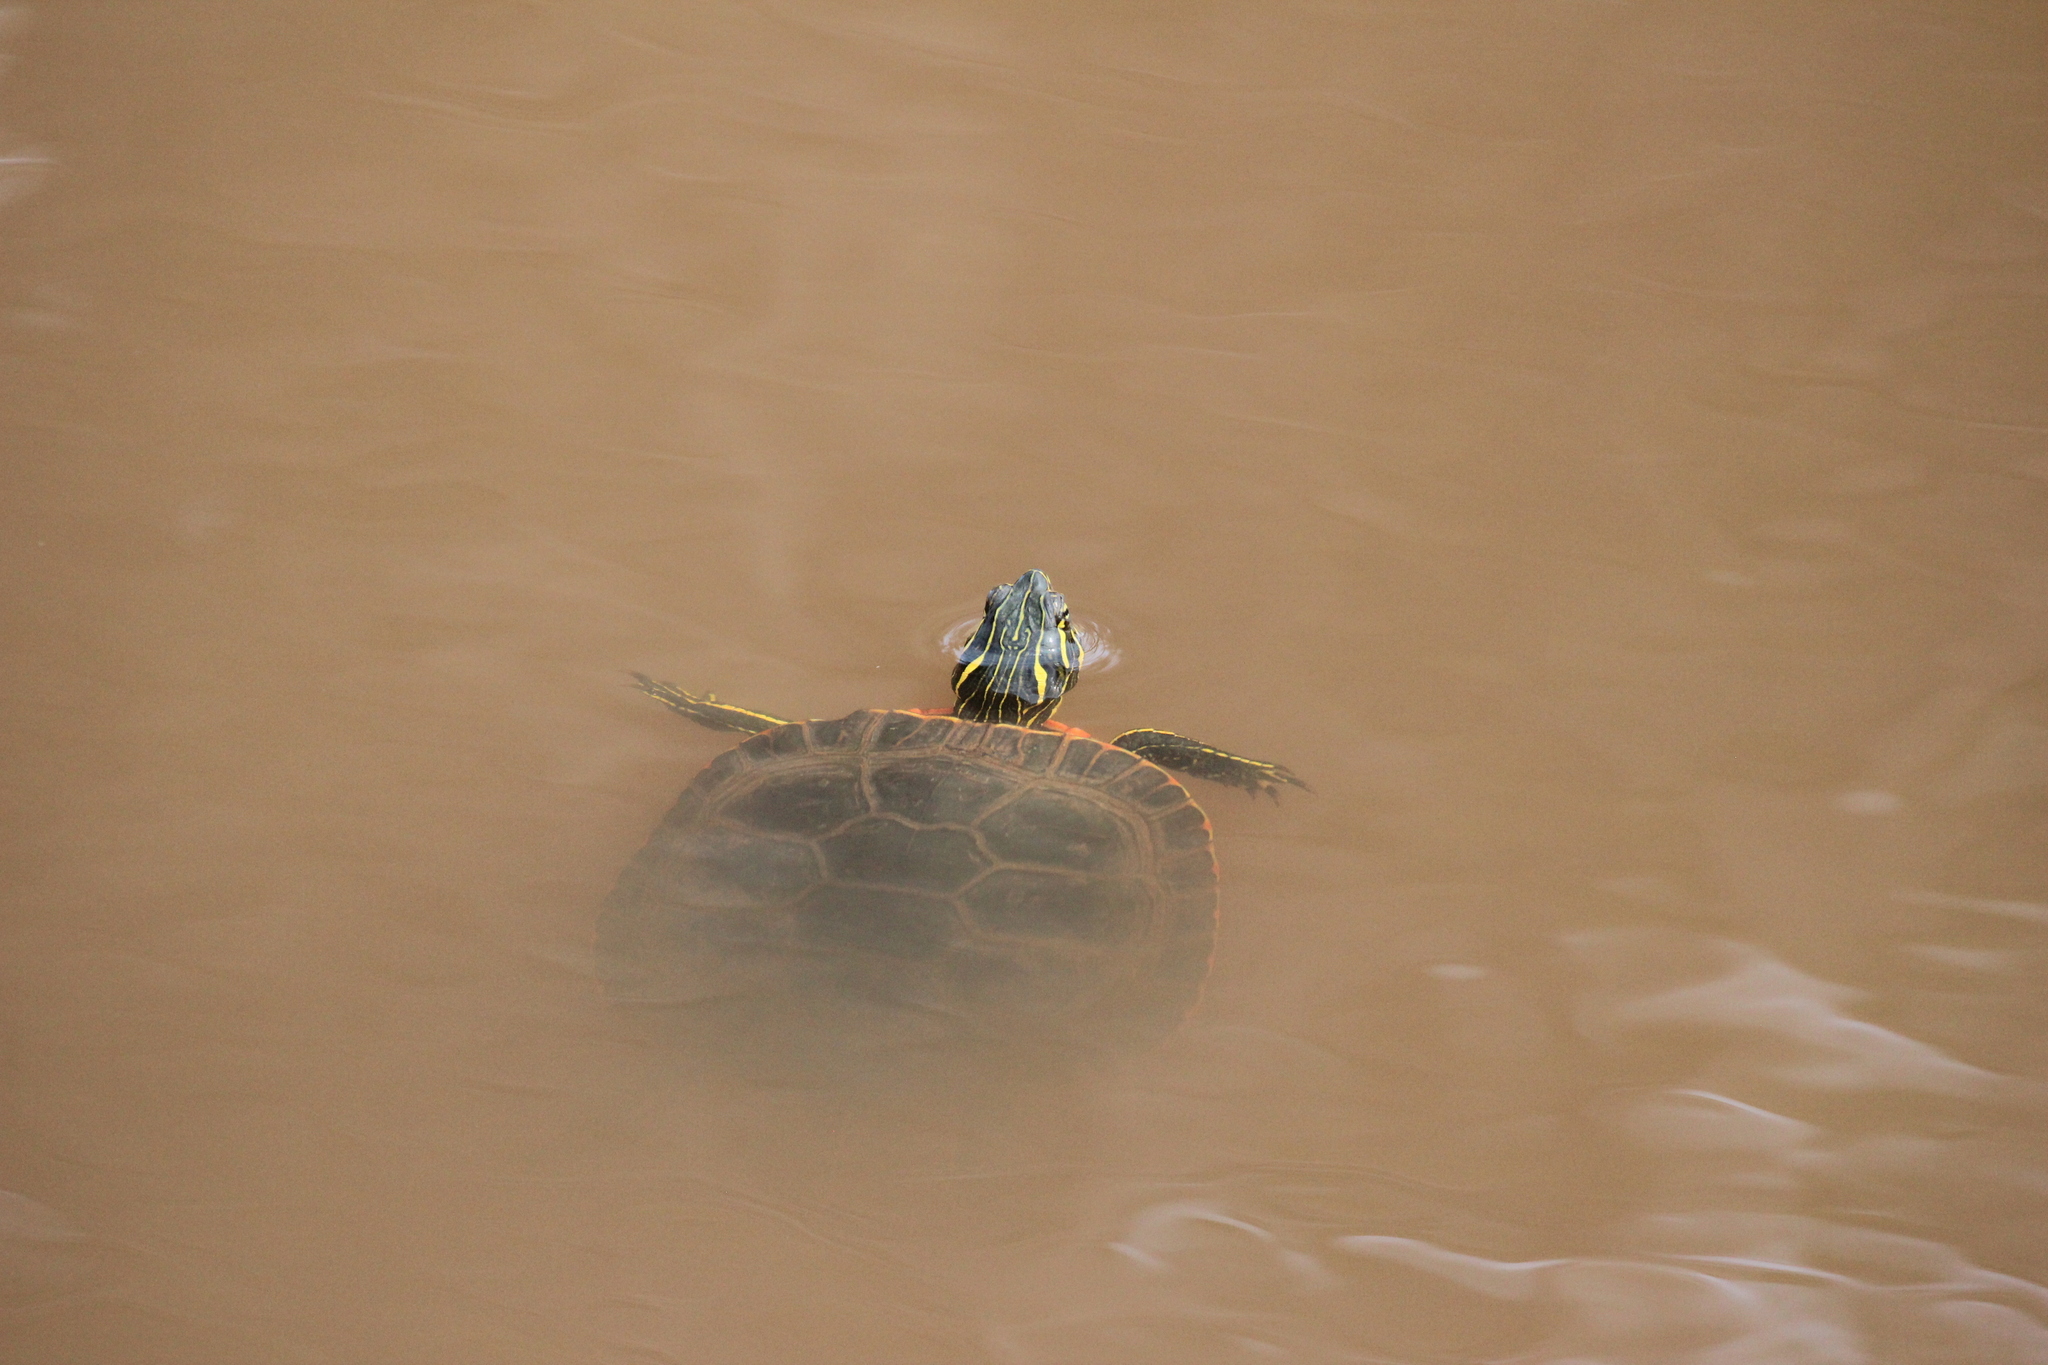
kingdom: Animalia
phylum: Chordata
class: Testudines
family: Emydidae
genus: Chrysemys
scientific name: Chrysemys picta
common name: Painted turtle
